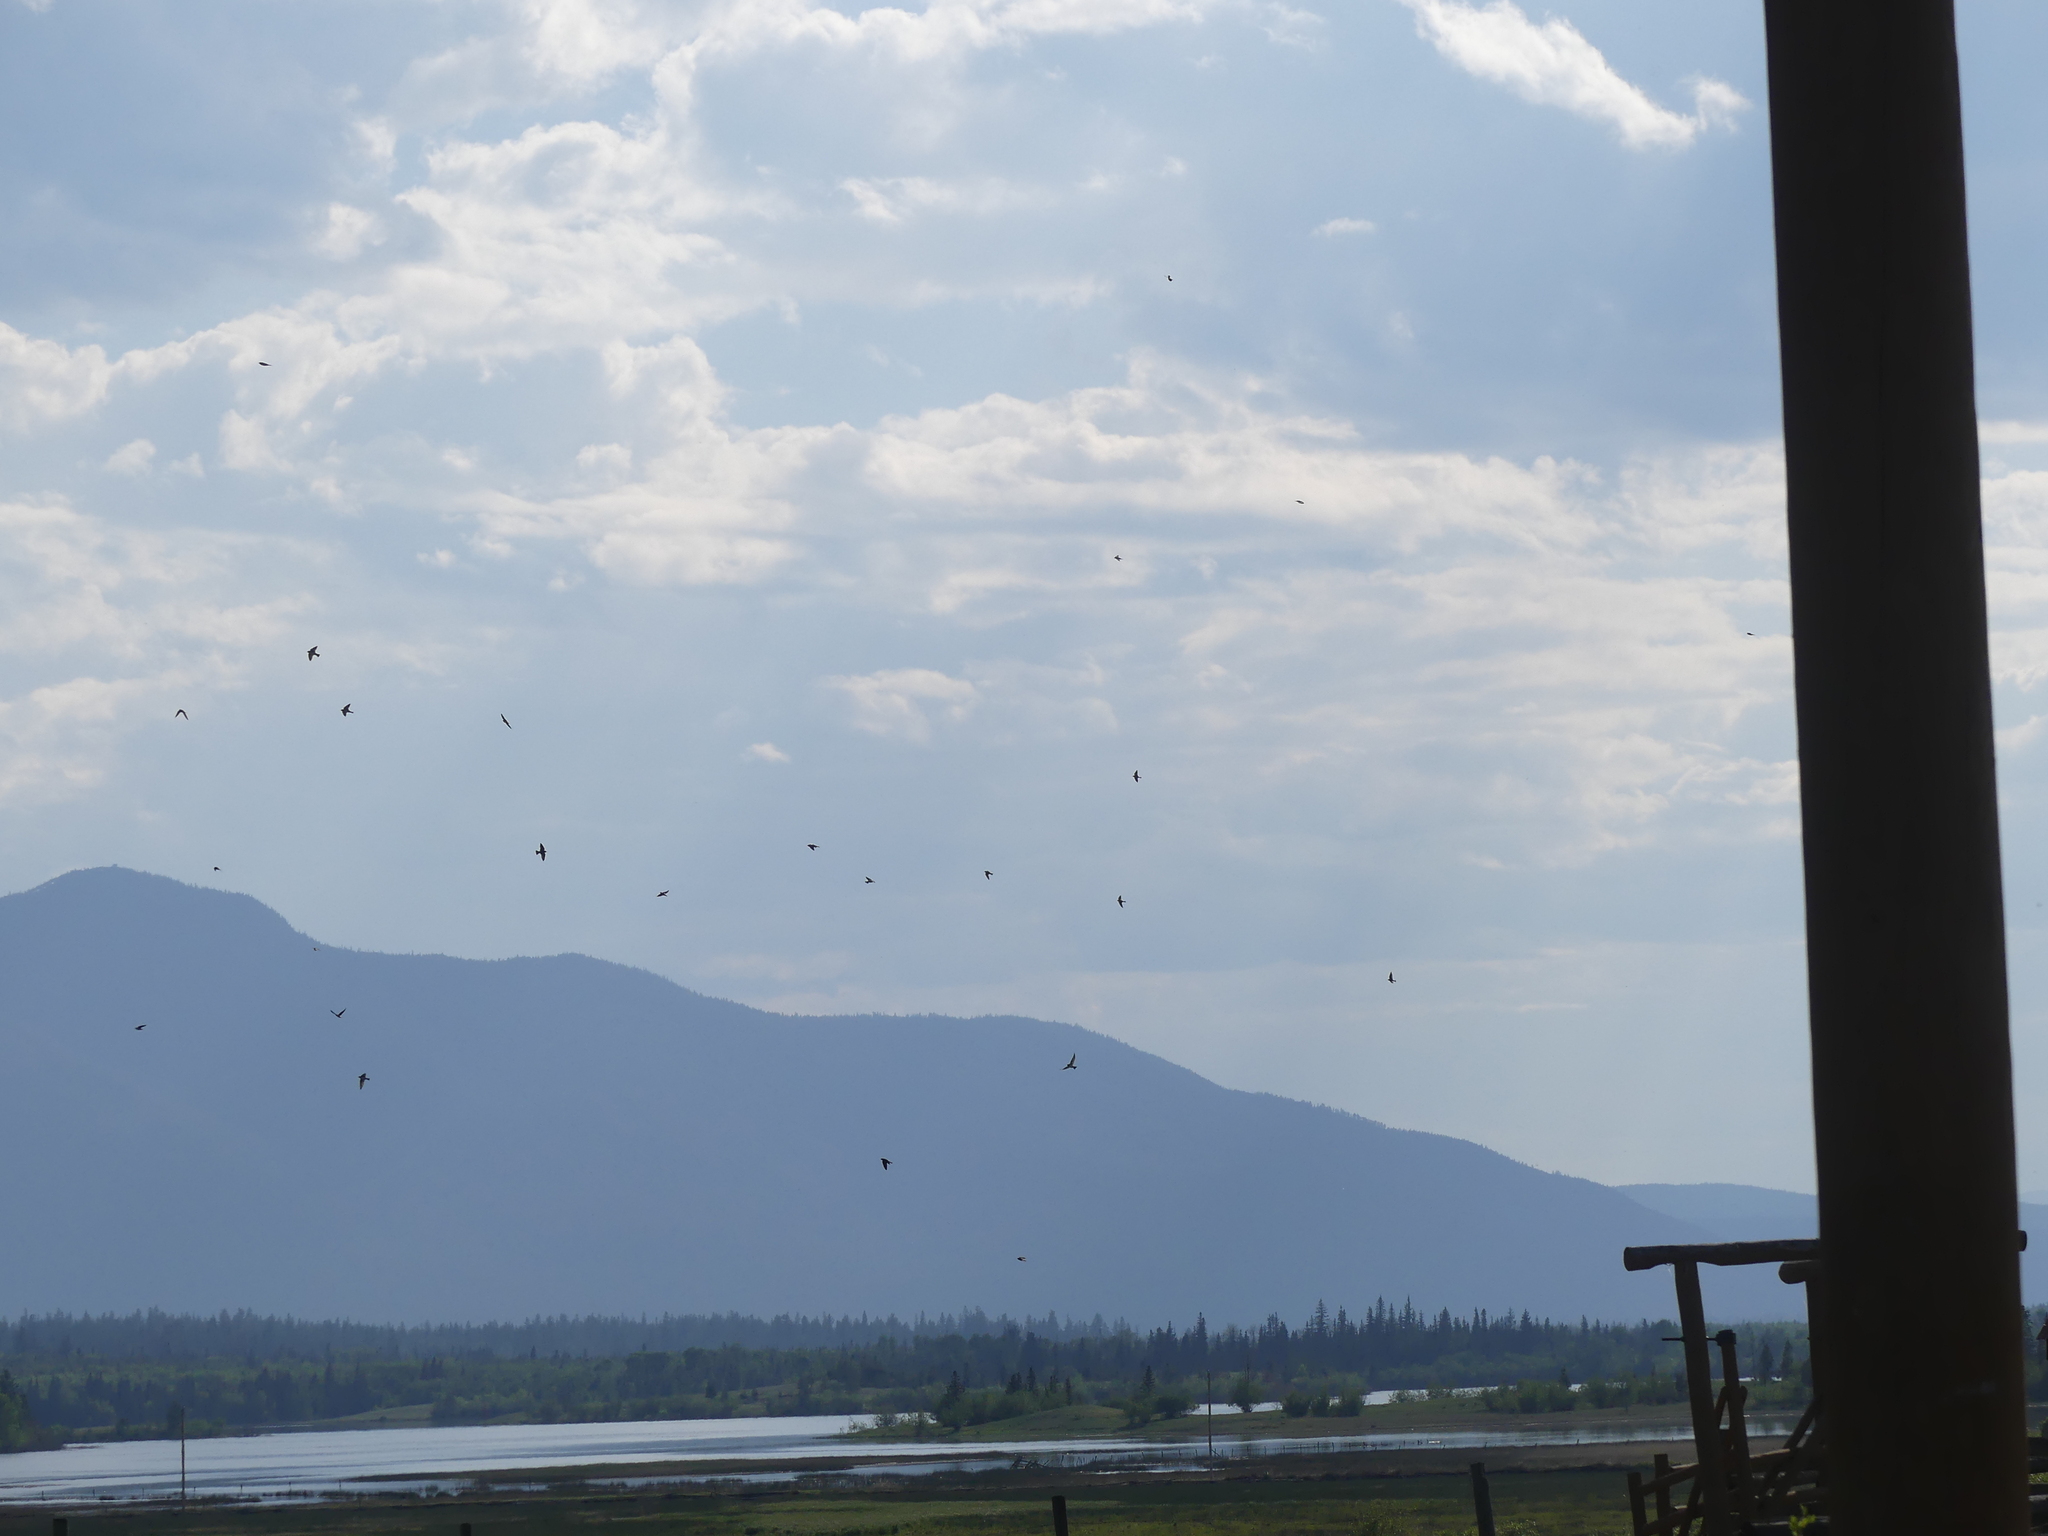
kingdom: Animalia
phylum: Chordata
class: Aves
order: Passeriformes
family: Hirundinidae
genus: Petrochelidon
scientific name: Petrochelidon pyrrhonota
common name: American cliff swallow
